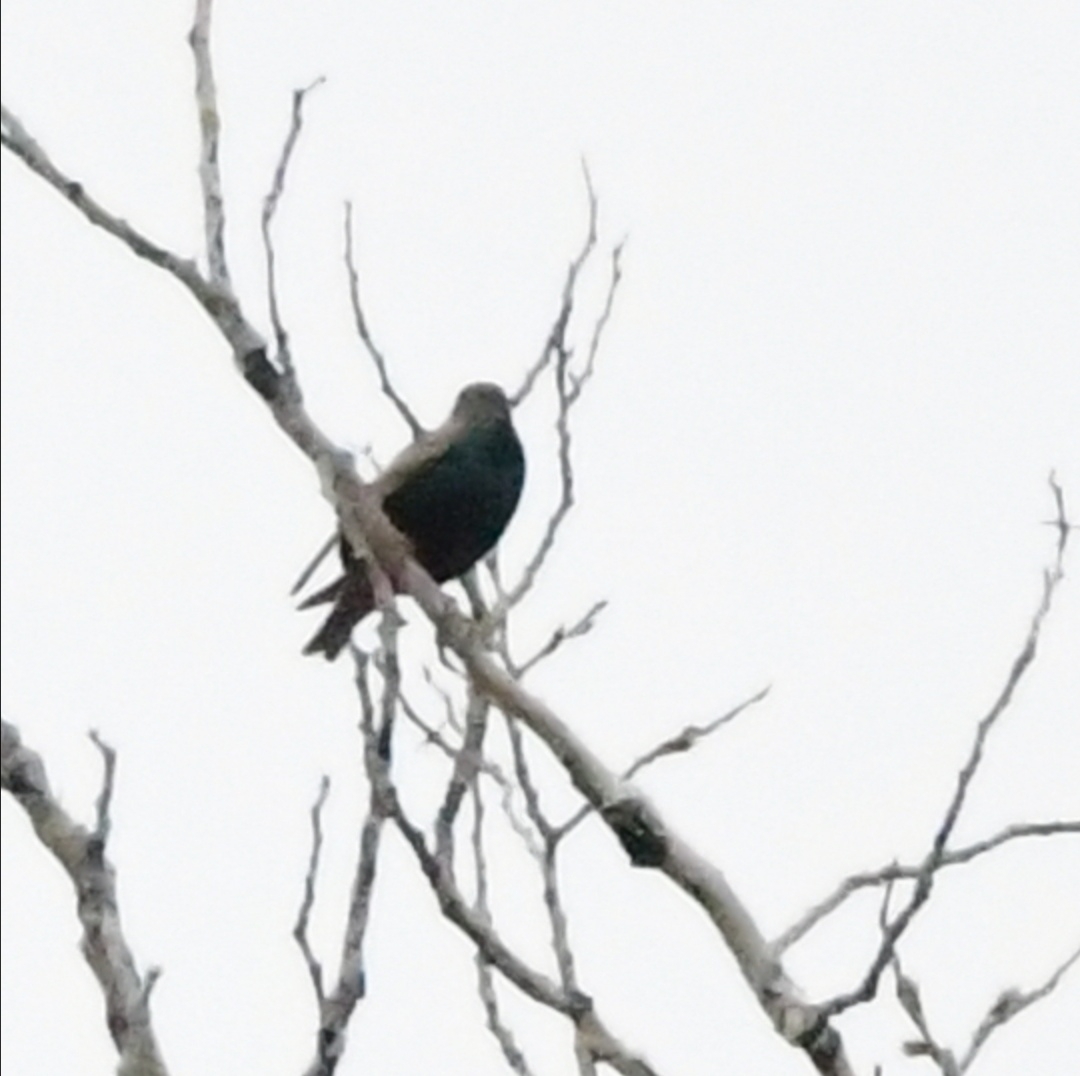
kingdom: Animalia
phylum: Chordata
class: Aves
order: Passeriformes
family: Sturnidae
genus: Sturnus
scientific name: Sturnus vulgaris
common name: Common starling
